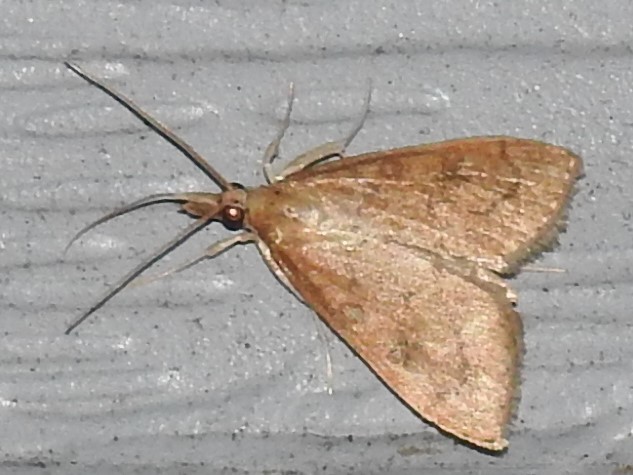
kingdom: Animalia
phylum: Arthropoda
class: Insecta
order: Lepidoptera
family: Crambidae
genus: Udea
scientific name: Udea rubigalis
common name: Celery leaftier moth
